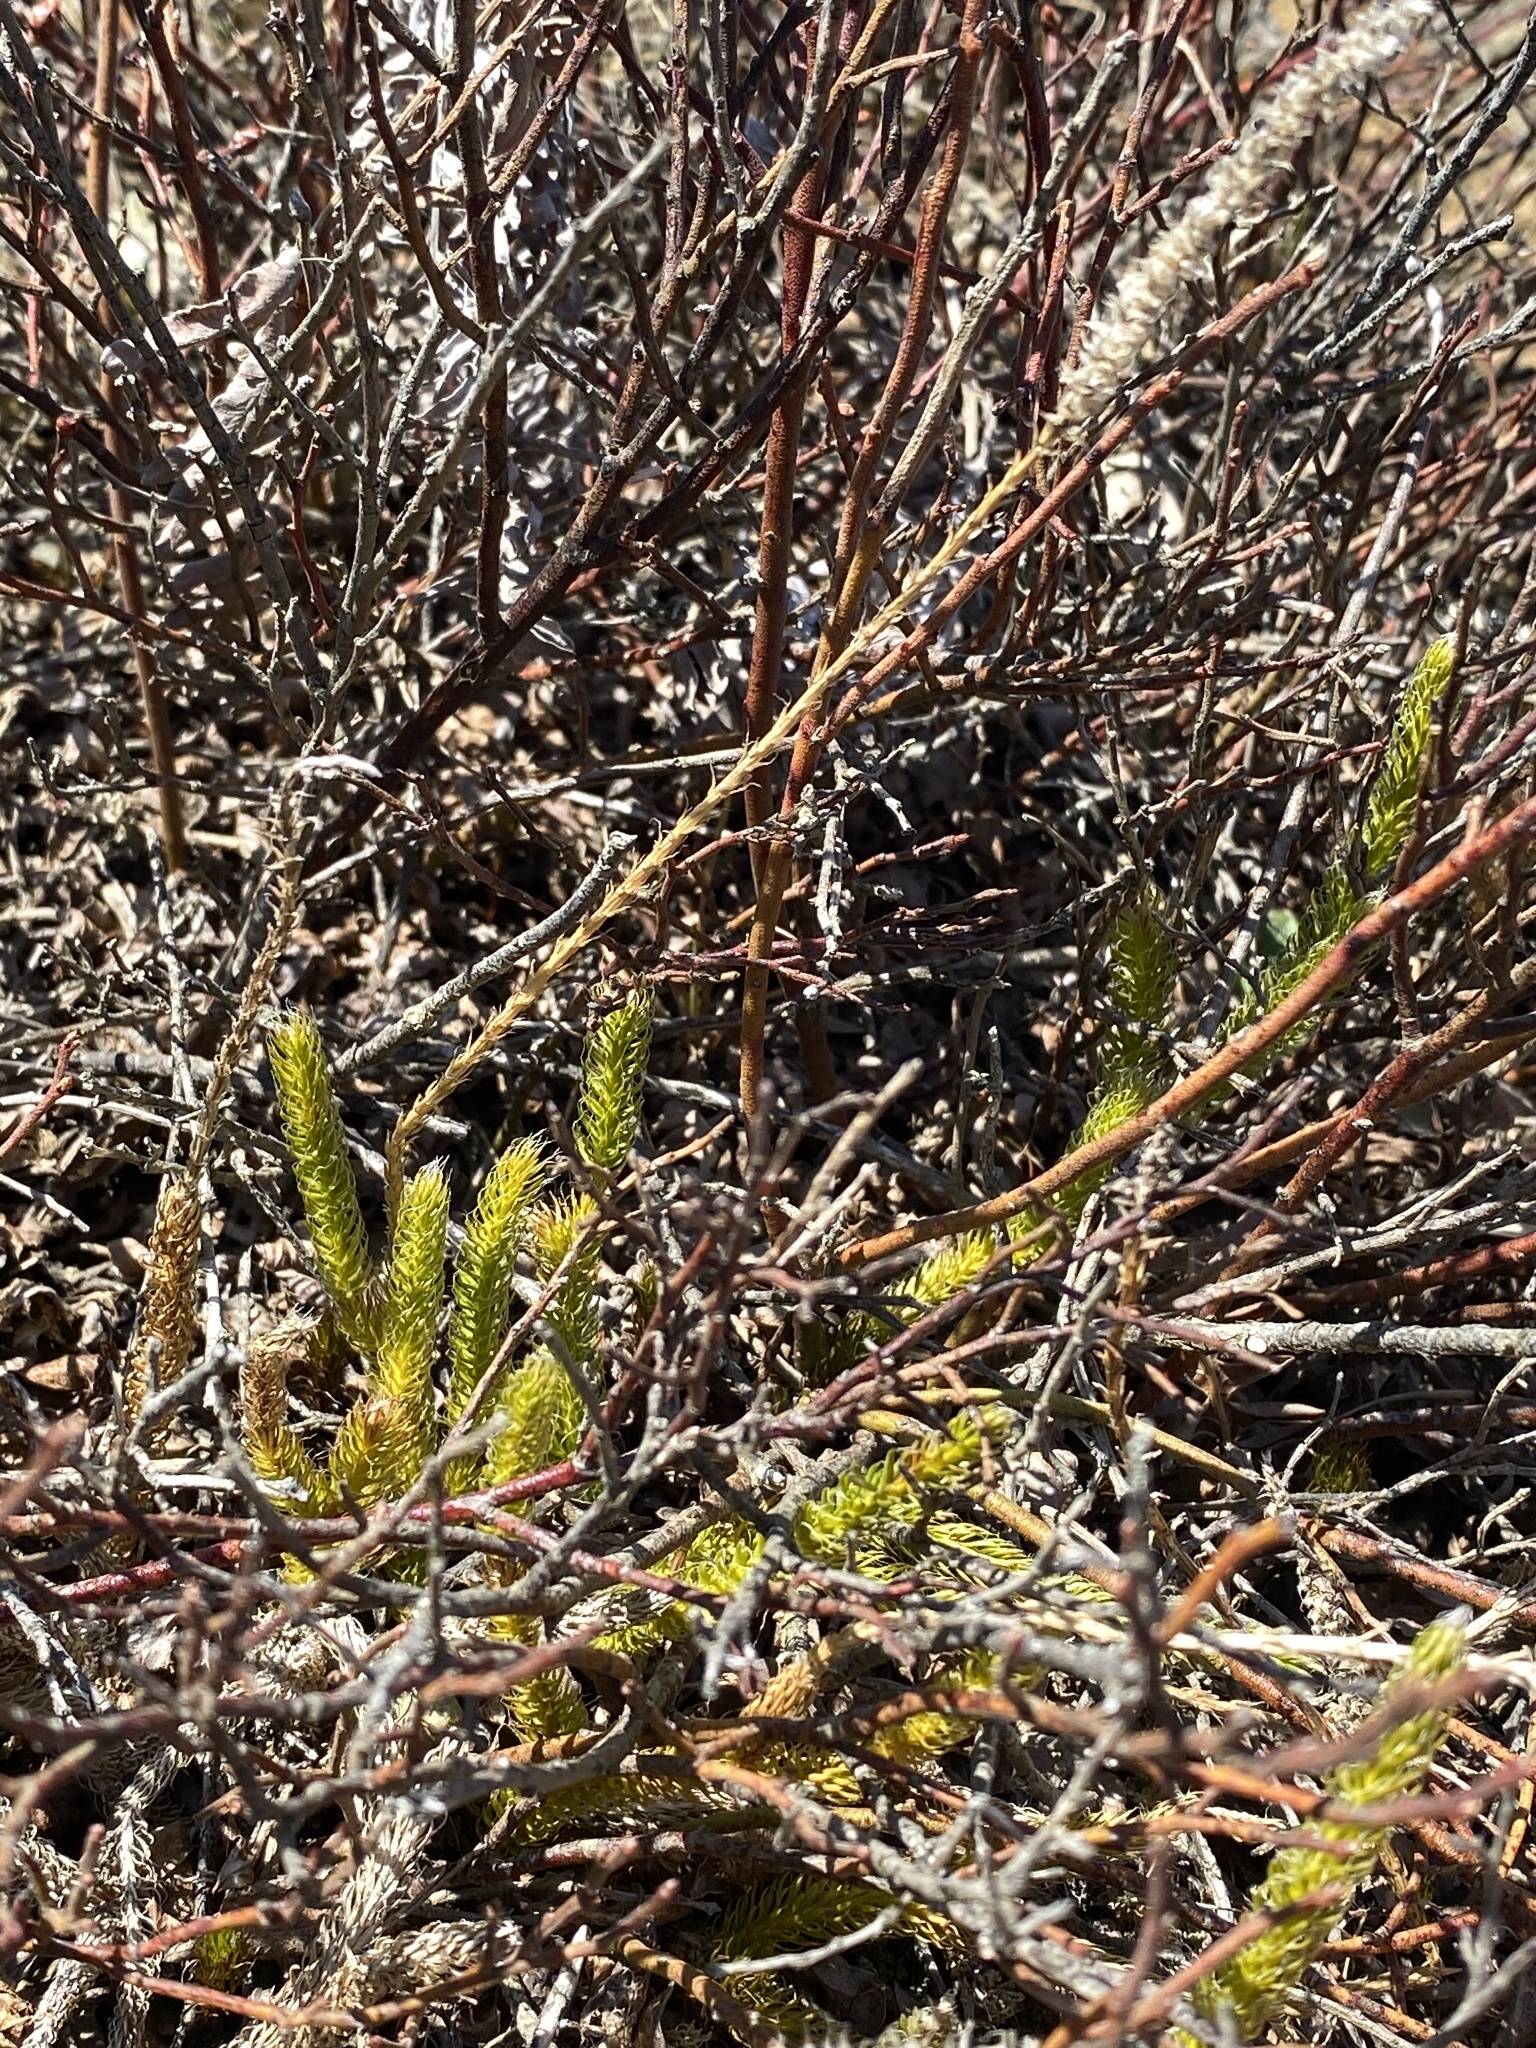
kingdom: Plantae
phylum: Tracheophyta
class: Lycopodiopsida
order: Lycopodiales
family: Lycopodiaceae
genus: Lycopodium
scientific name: Lycopodium lagopus
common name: One-cone clubmoss
